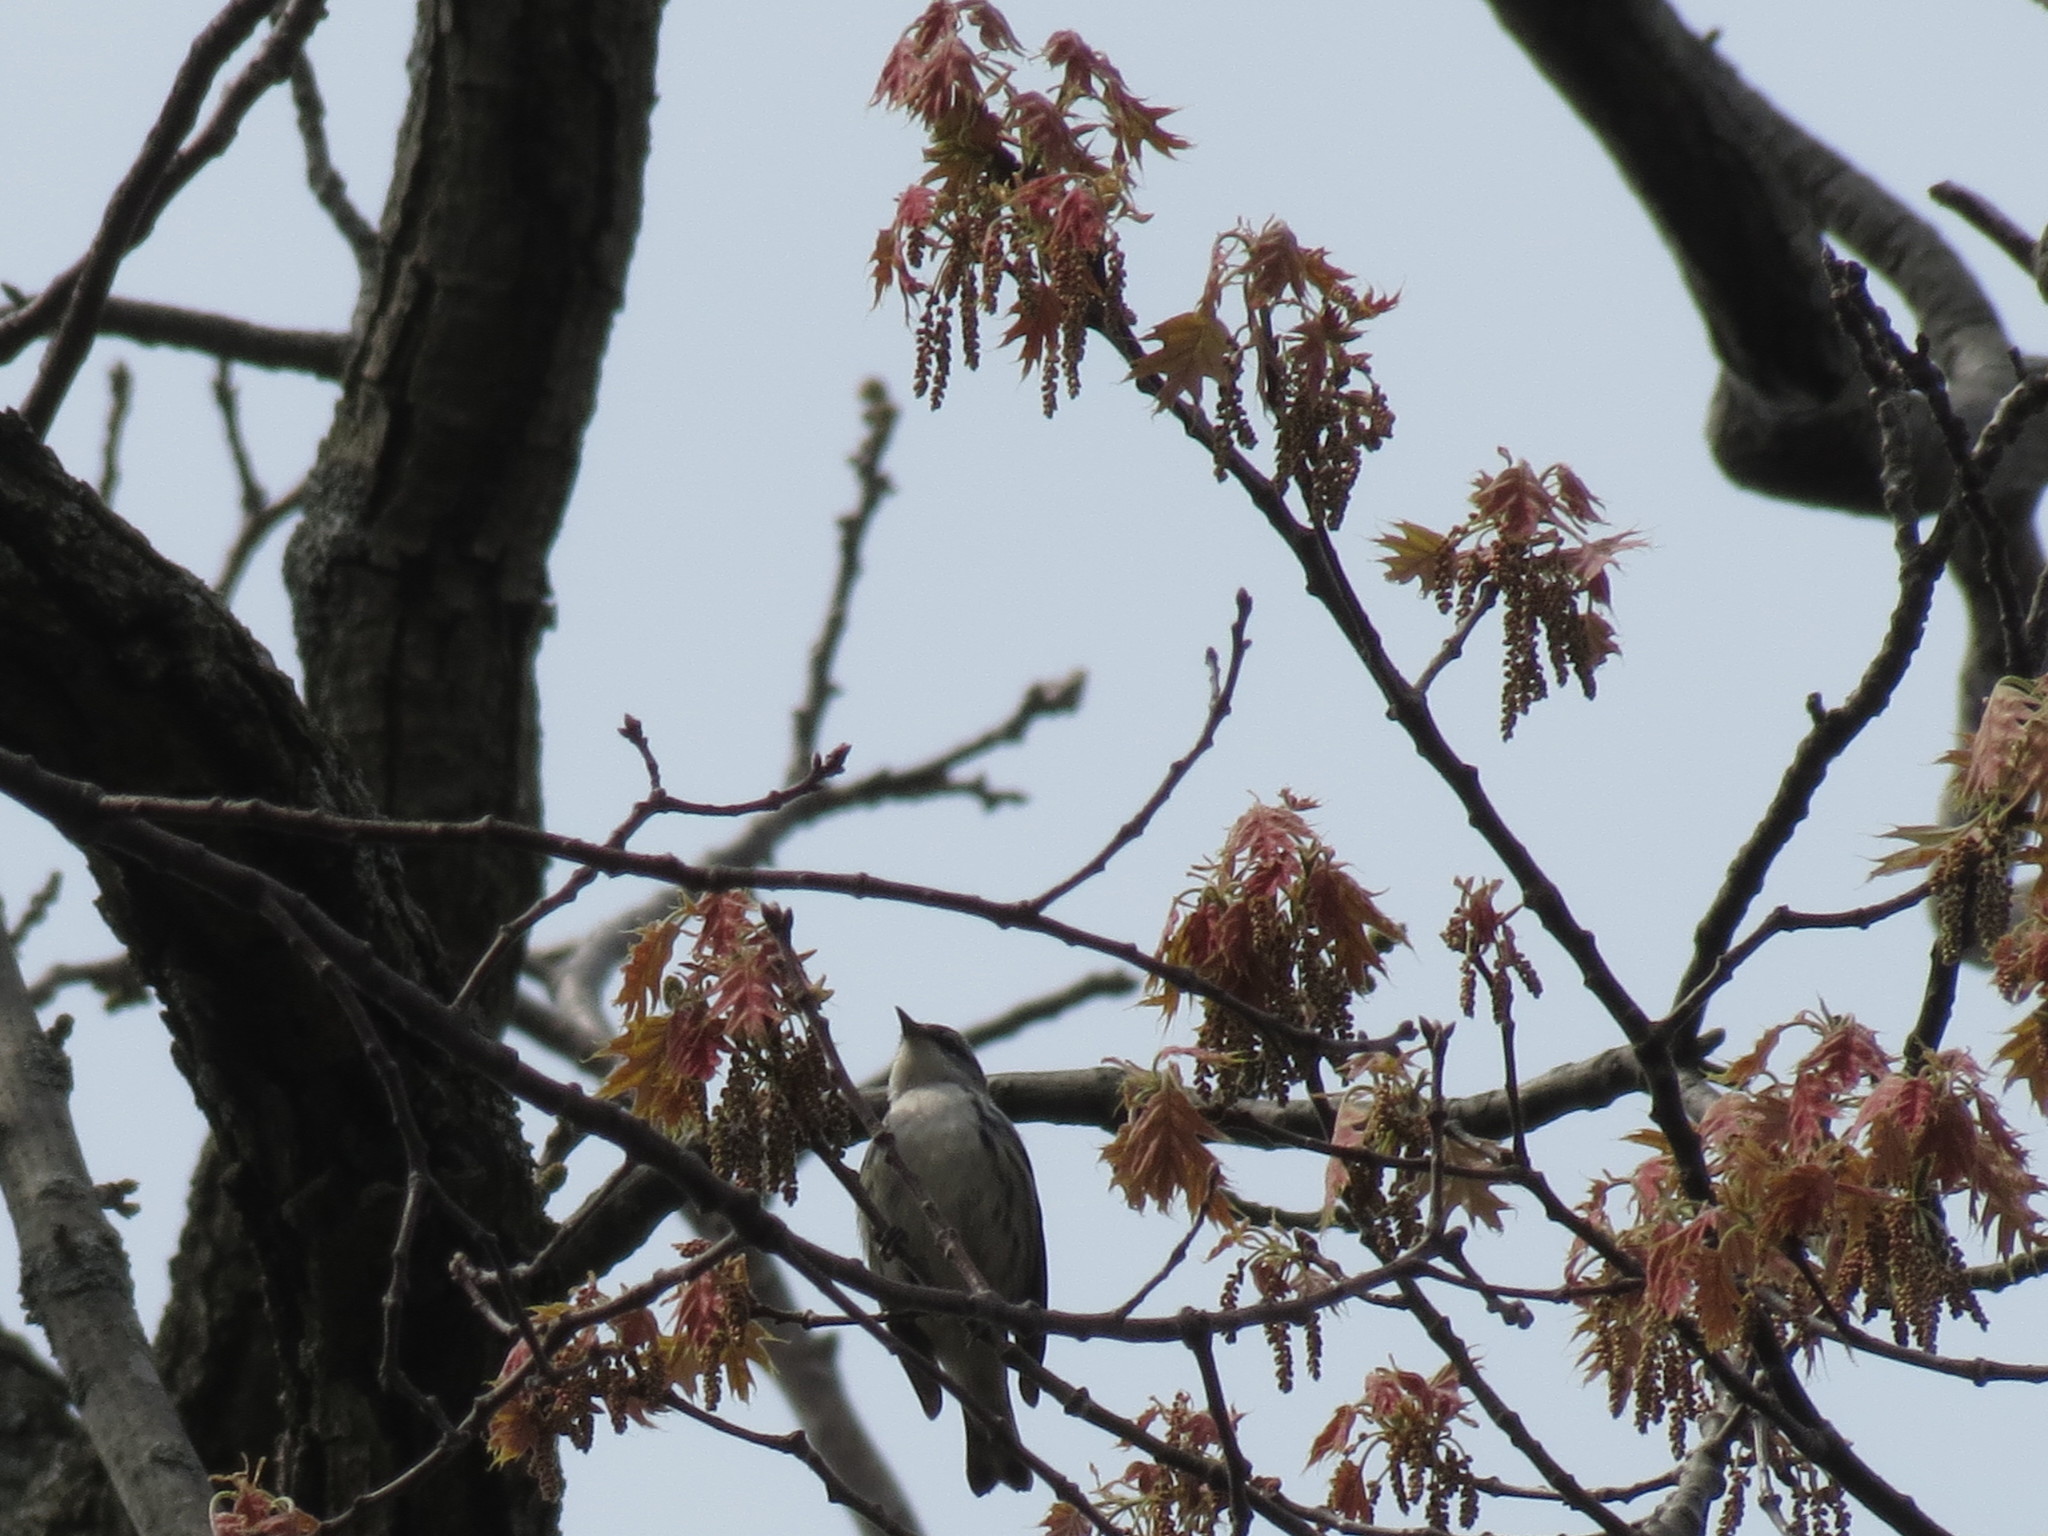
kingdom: Animalia
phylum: Chordata
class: Aves
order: Passeriformes
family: Parulidae
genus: Setophaga
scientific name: Setophaga cerulea
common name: Cerulean warbler
